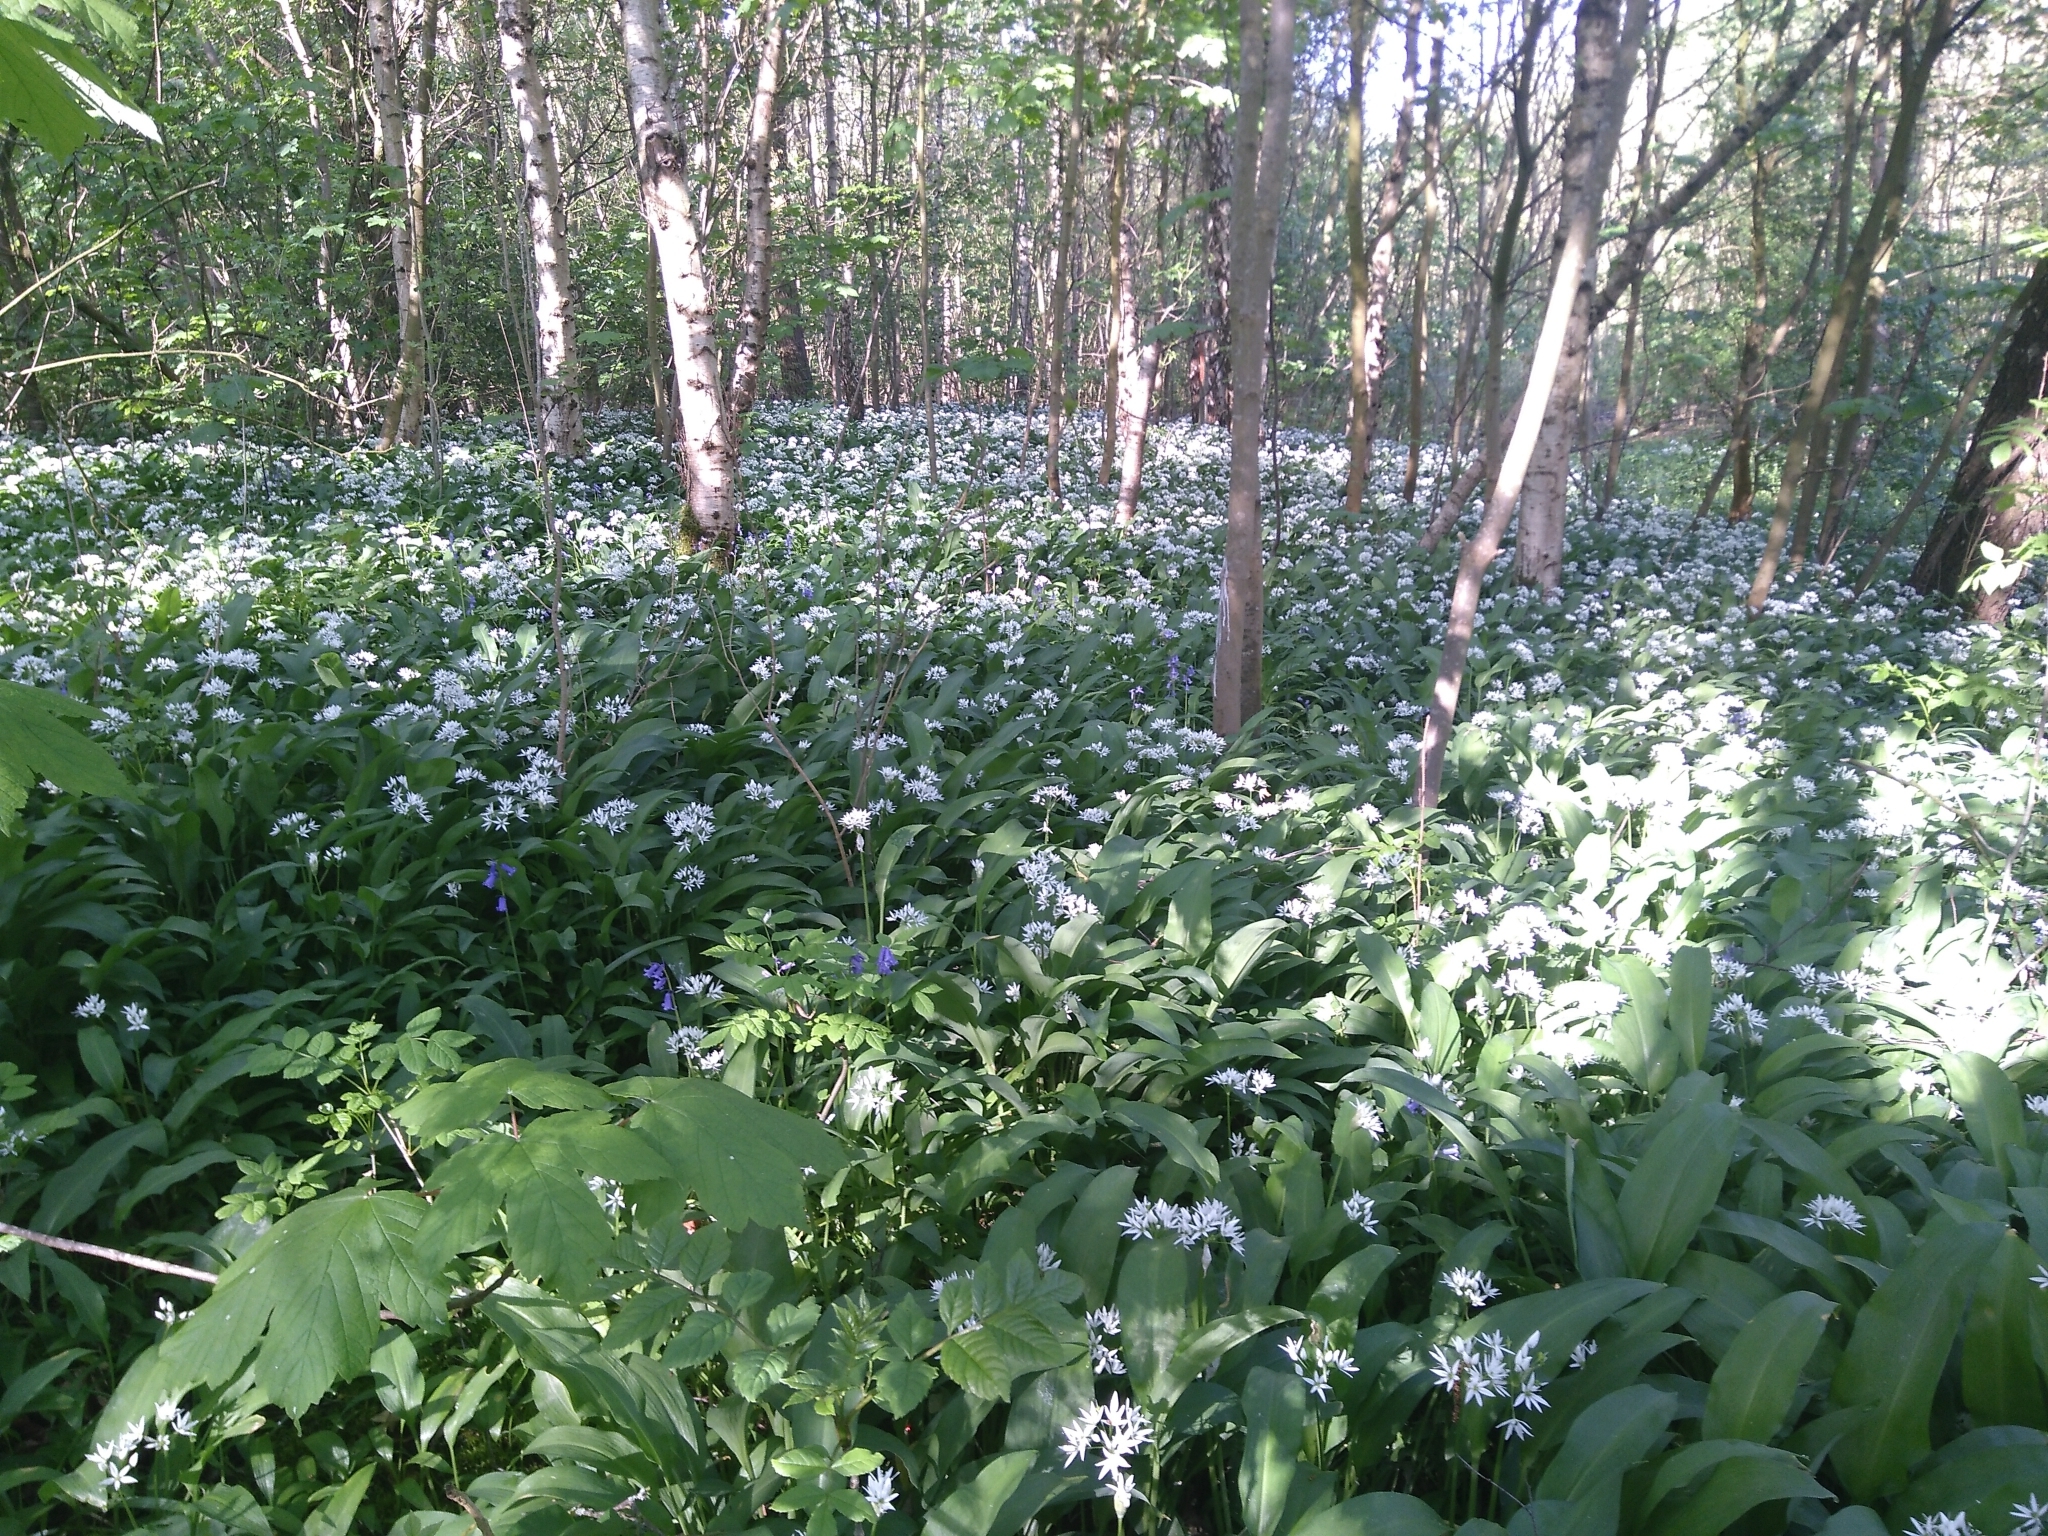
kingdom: Plantae
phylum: Tracheophyta
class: Liliopsida
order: Asparagales
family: Amaryllidaceae
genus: Allium
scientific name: Allium ursinum
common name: Ramsons
